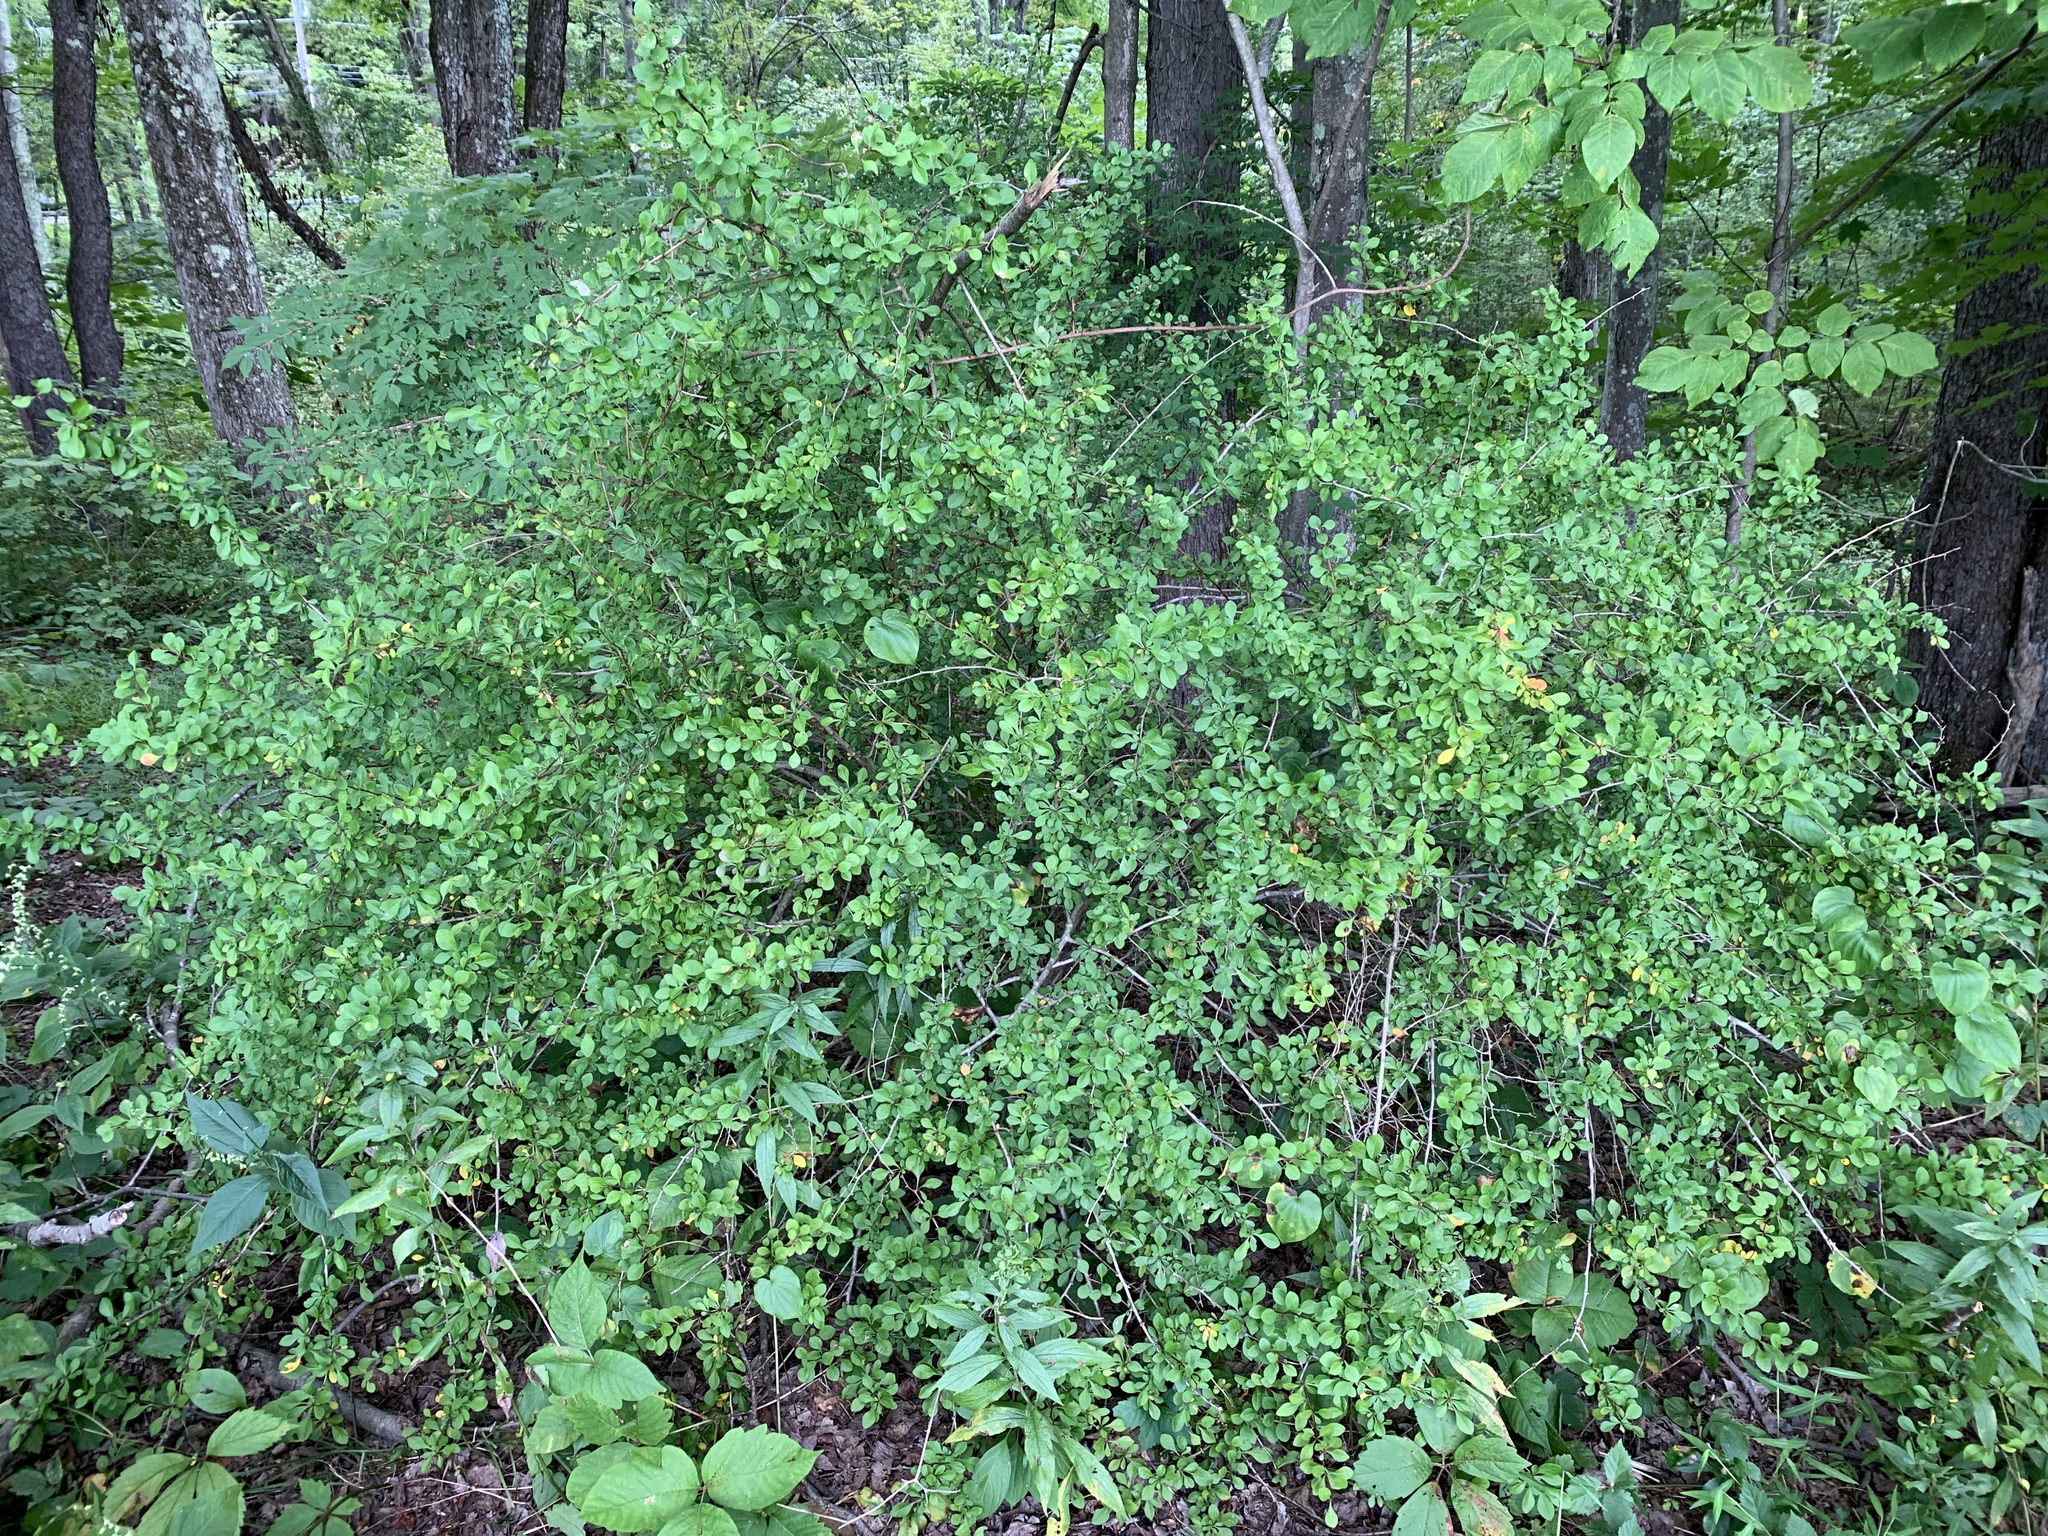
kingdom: Plantae
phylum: Tracheophyta
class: Magnoliopsida
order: Ranunculales
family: Berberidaceae
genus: Berberis
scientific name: Berberis thunbergii
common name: Japanese barberry
